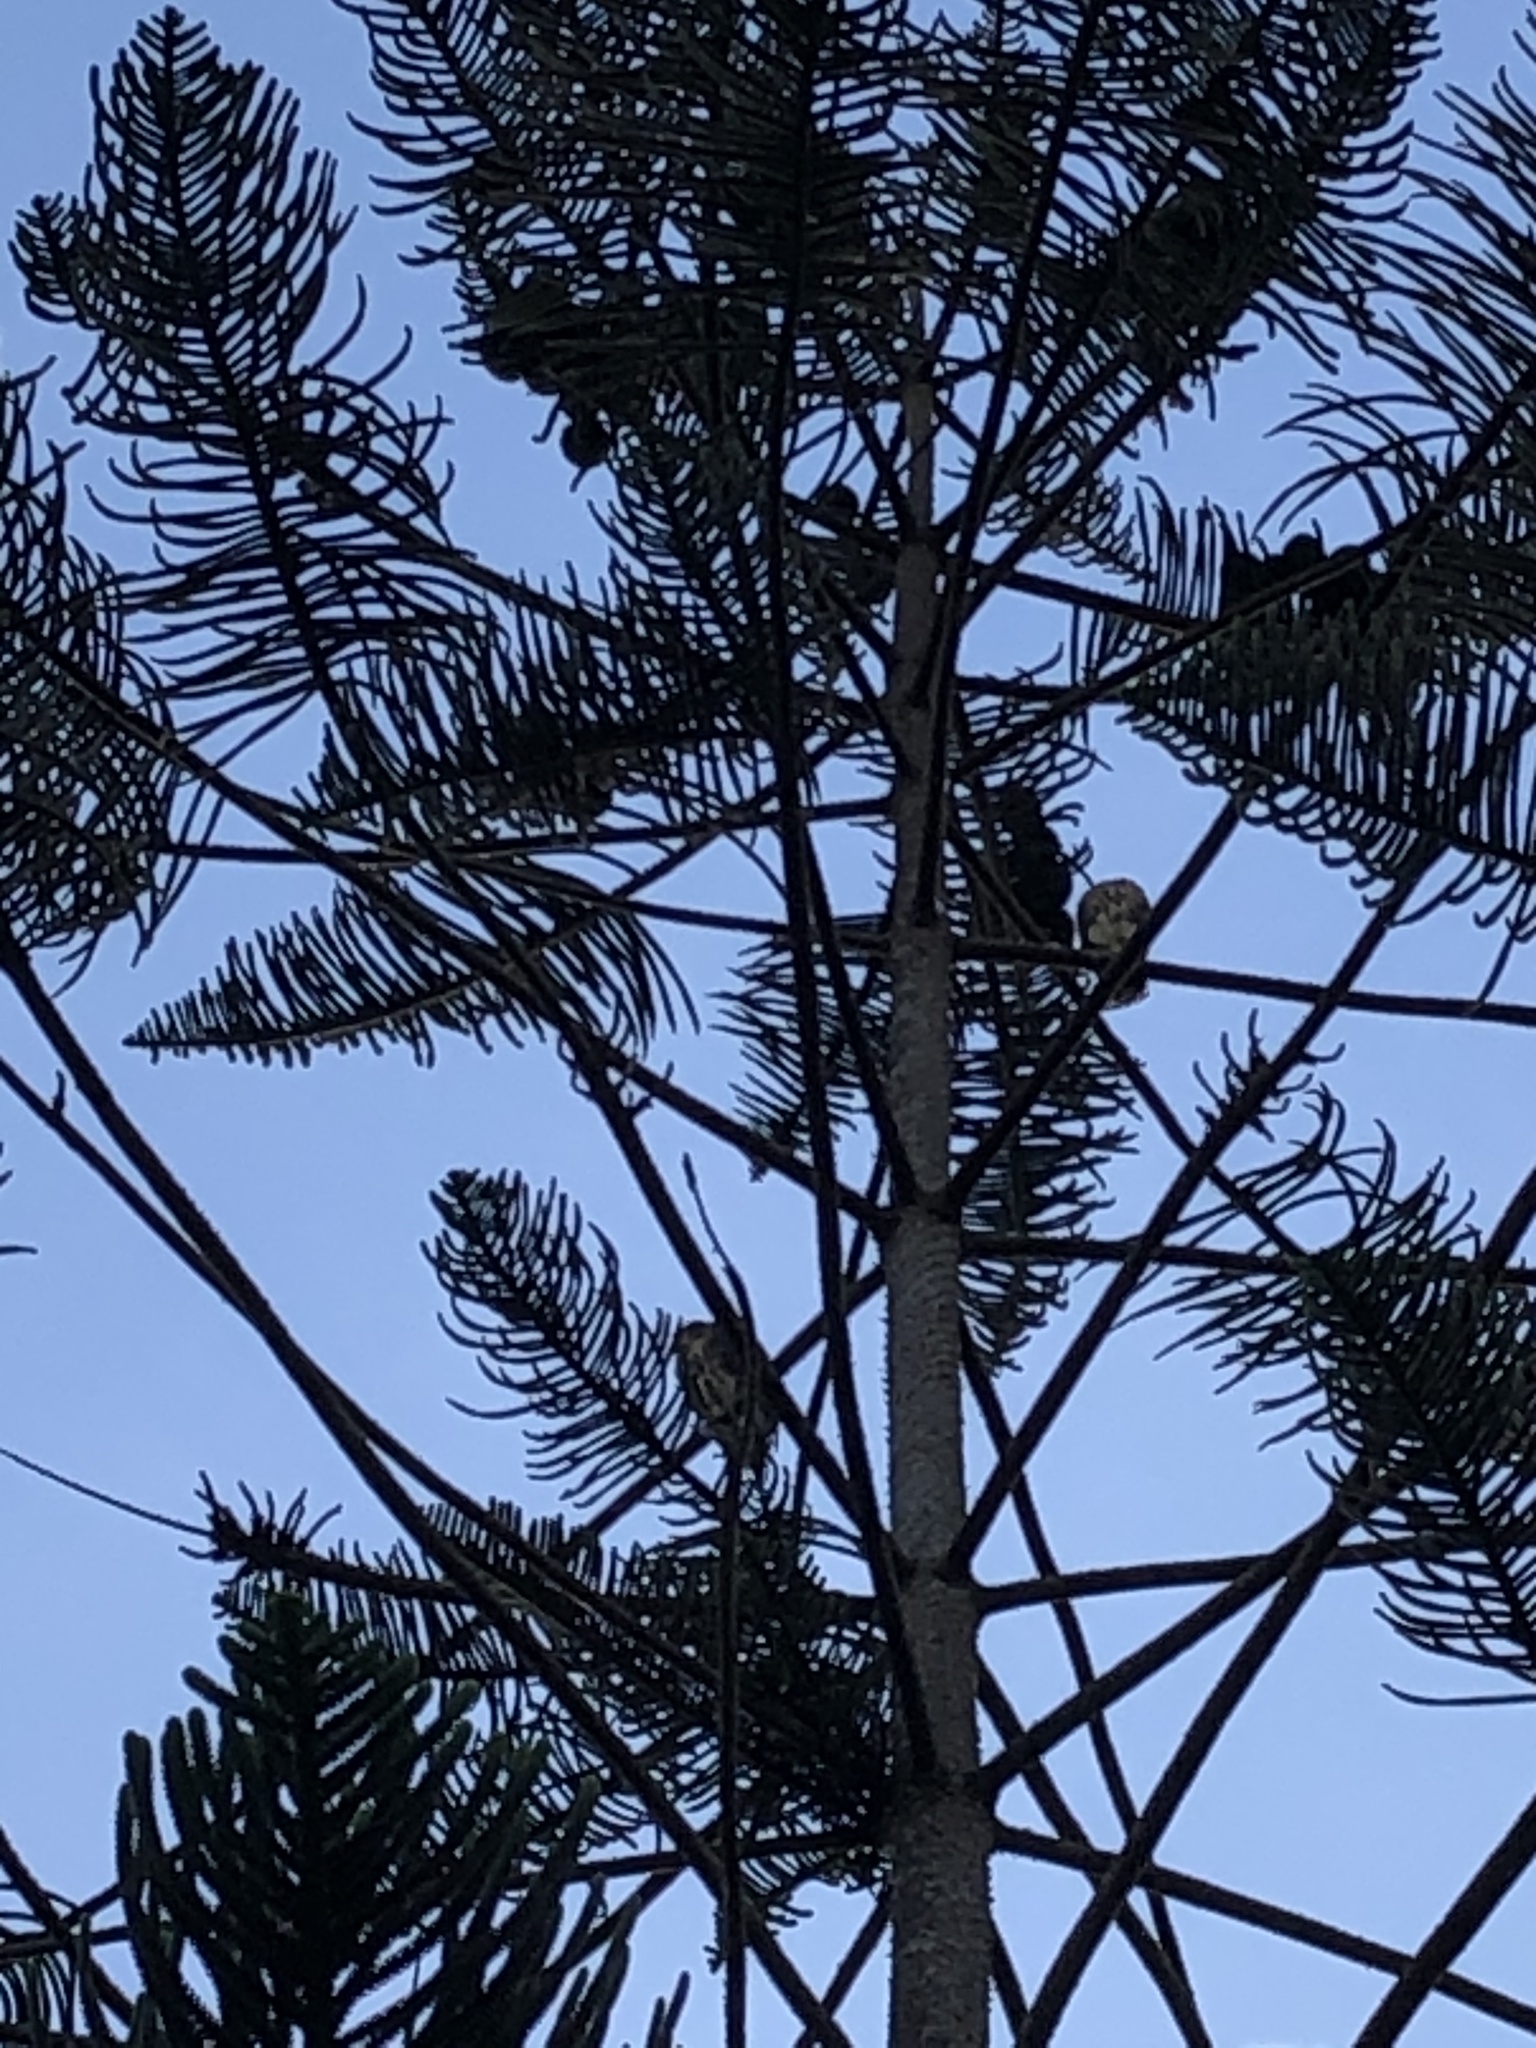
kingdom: Animalia
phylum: Chordata
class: Aves
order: Accipitriformes
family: Accipitridae
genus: Parabuteo
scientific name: Parabuteo unicinctus
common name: Harris's hawk
